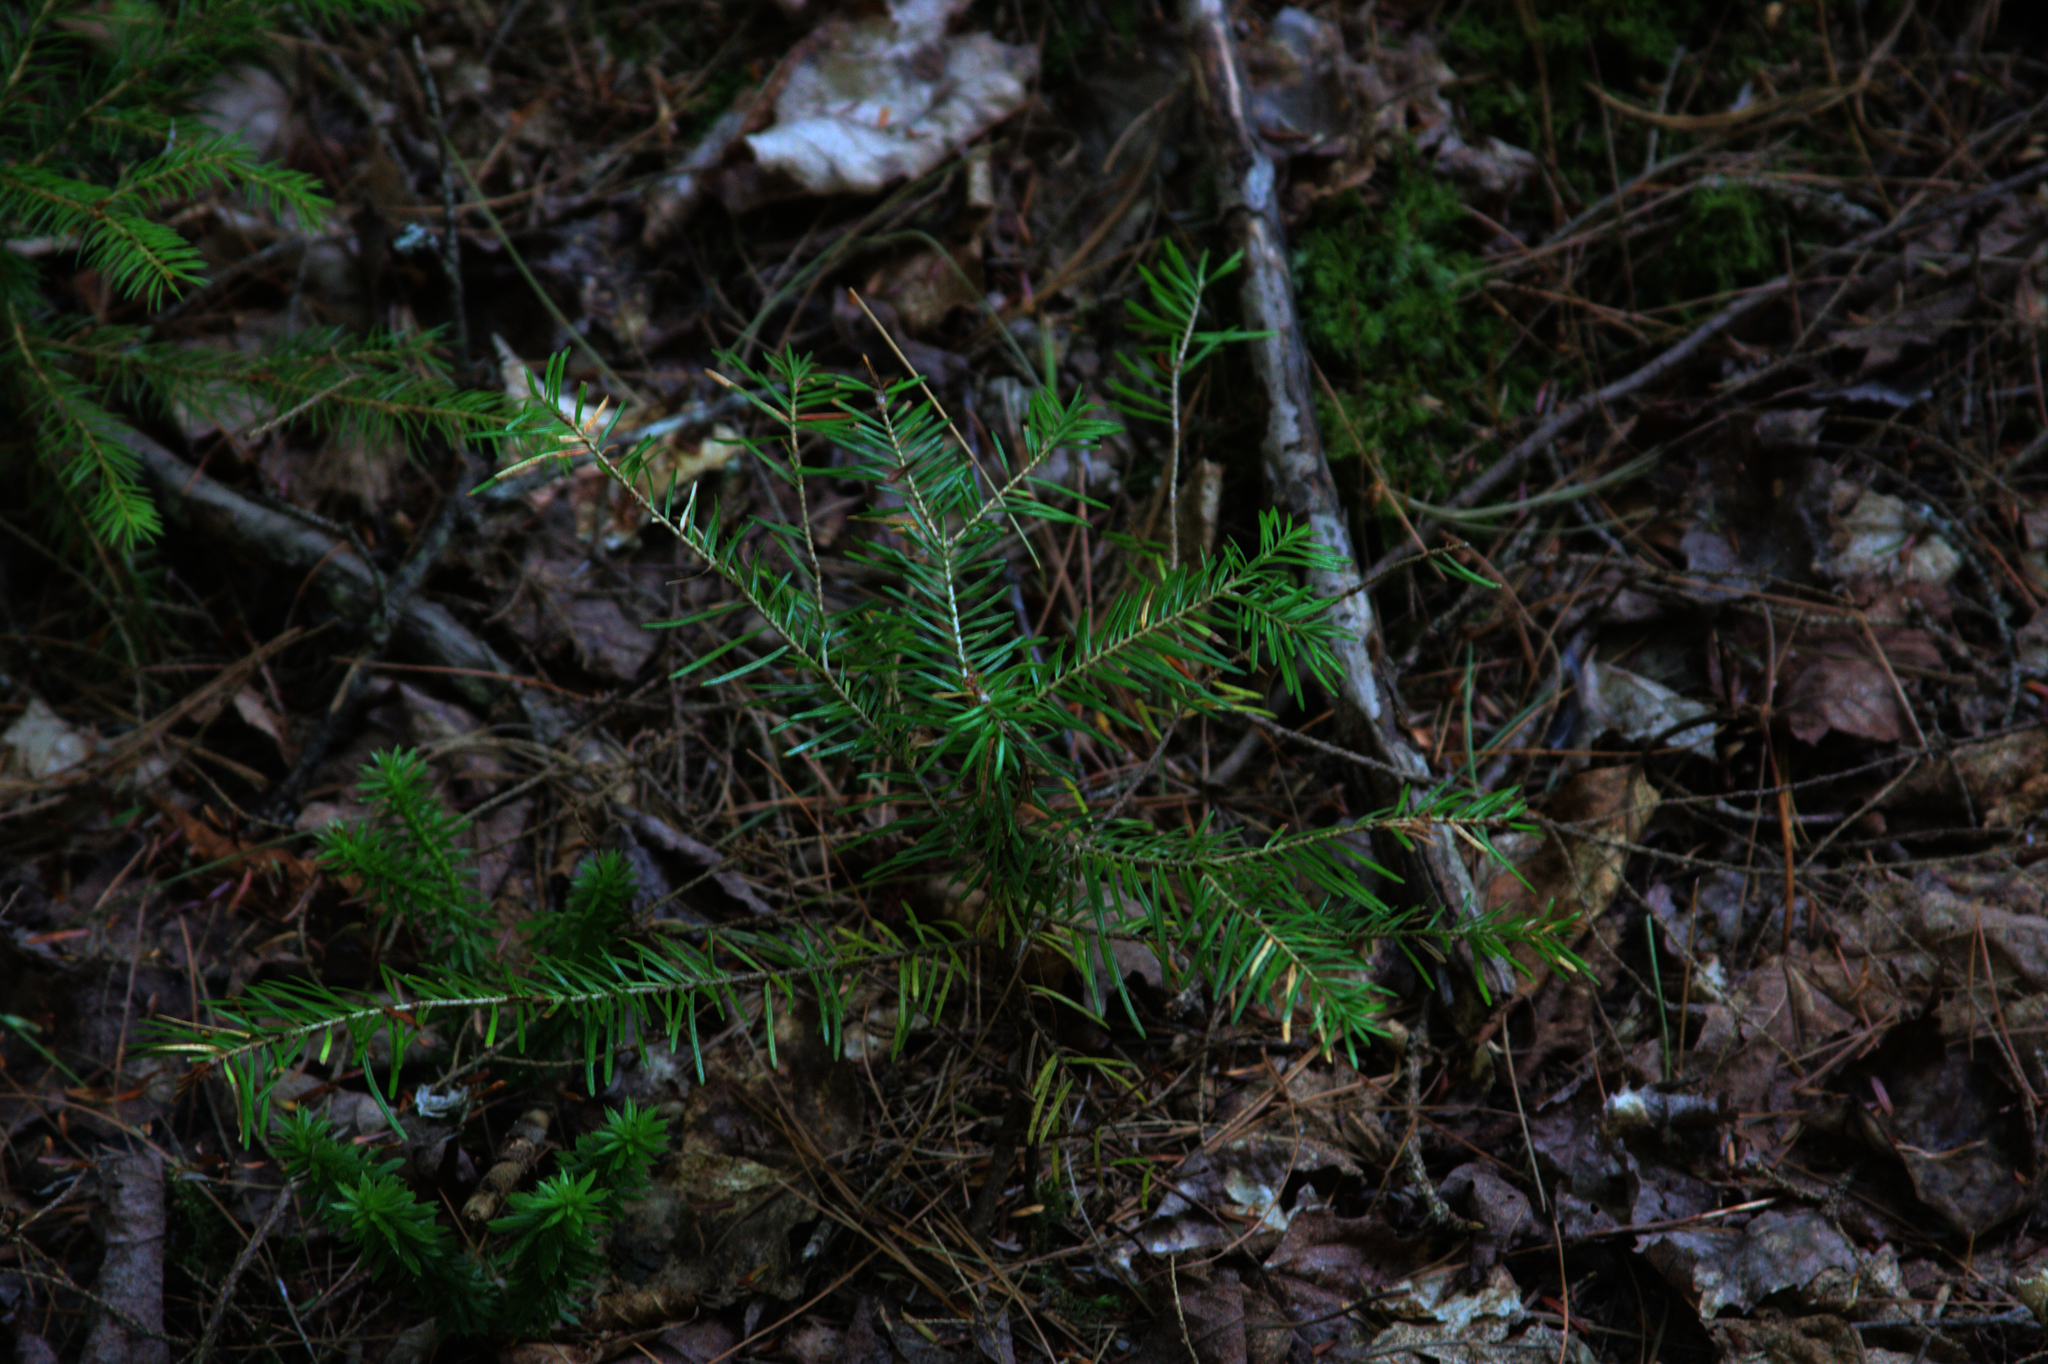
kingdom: Plantae
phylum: Tracheophyta
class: Pinopsida
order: Pinales
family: Pinaceae
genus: Tsuga
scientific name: Tsuga canadensis
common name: Eastern hemlock
